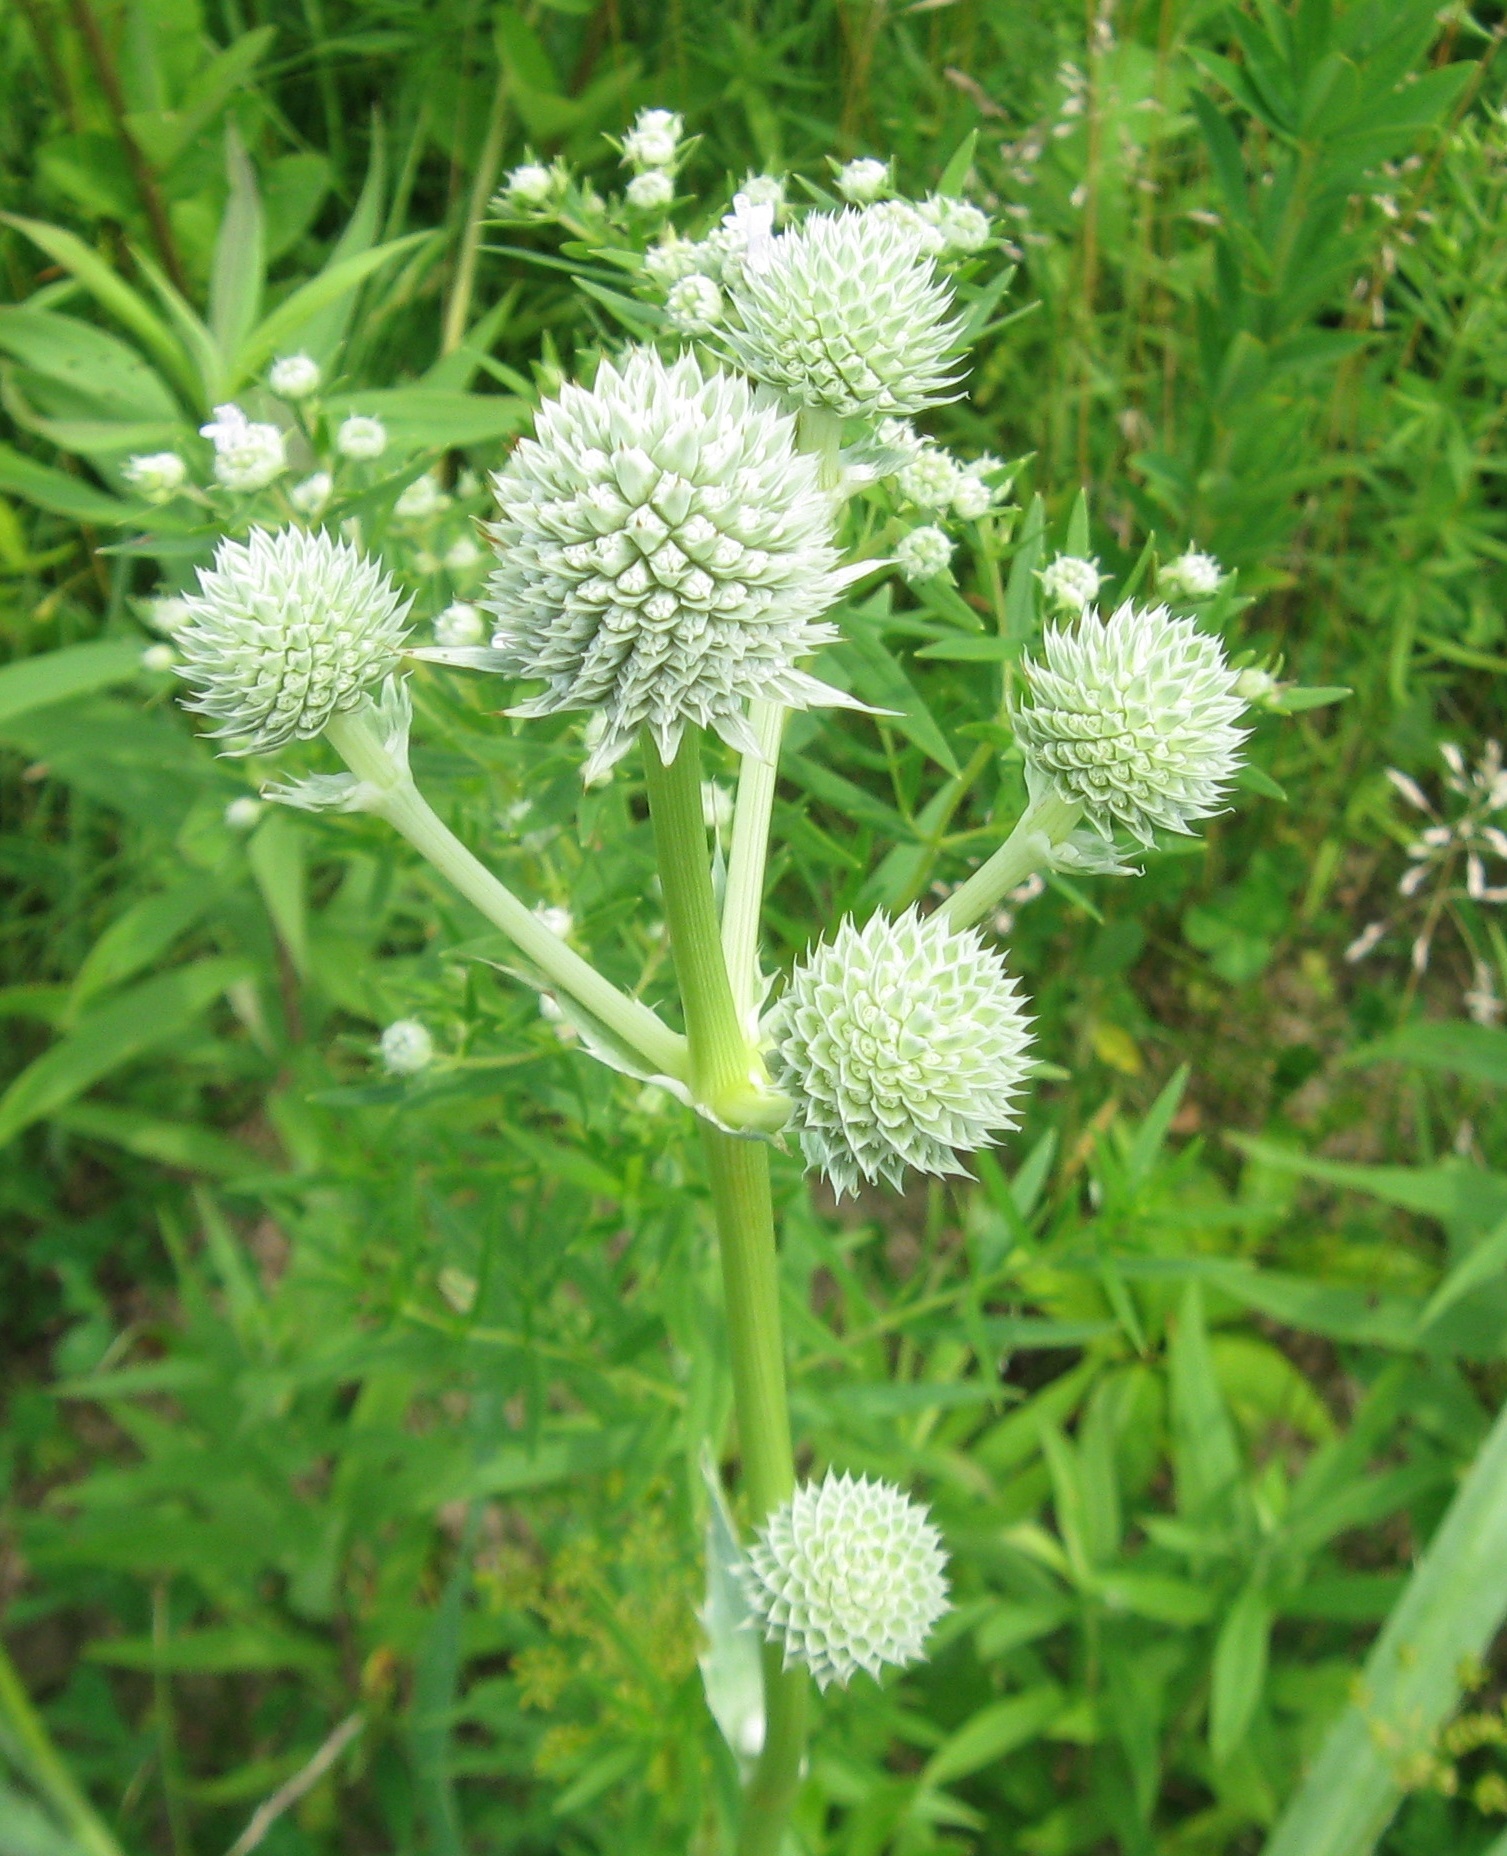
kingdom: Plantae
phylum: Tracheophyta
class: Magnoliopsida
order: Apiales
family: Apiaceae
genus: Eryngium
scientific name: Eryngium yuccifolium
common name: Button eryngo
